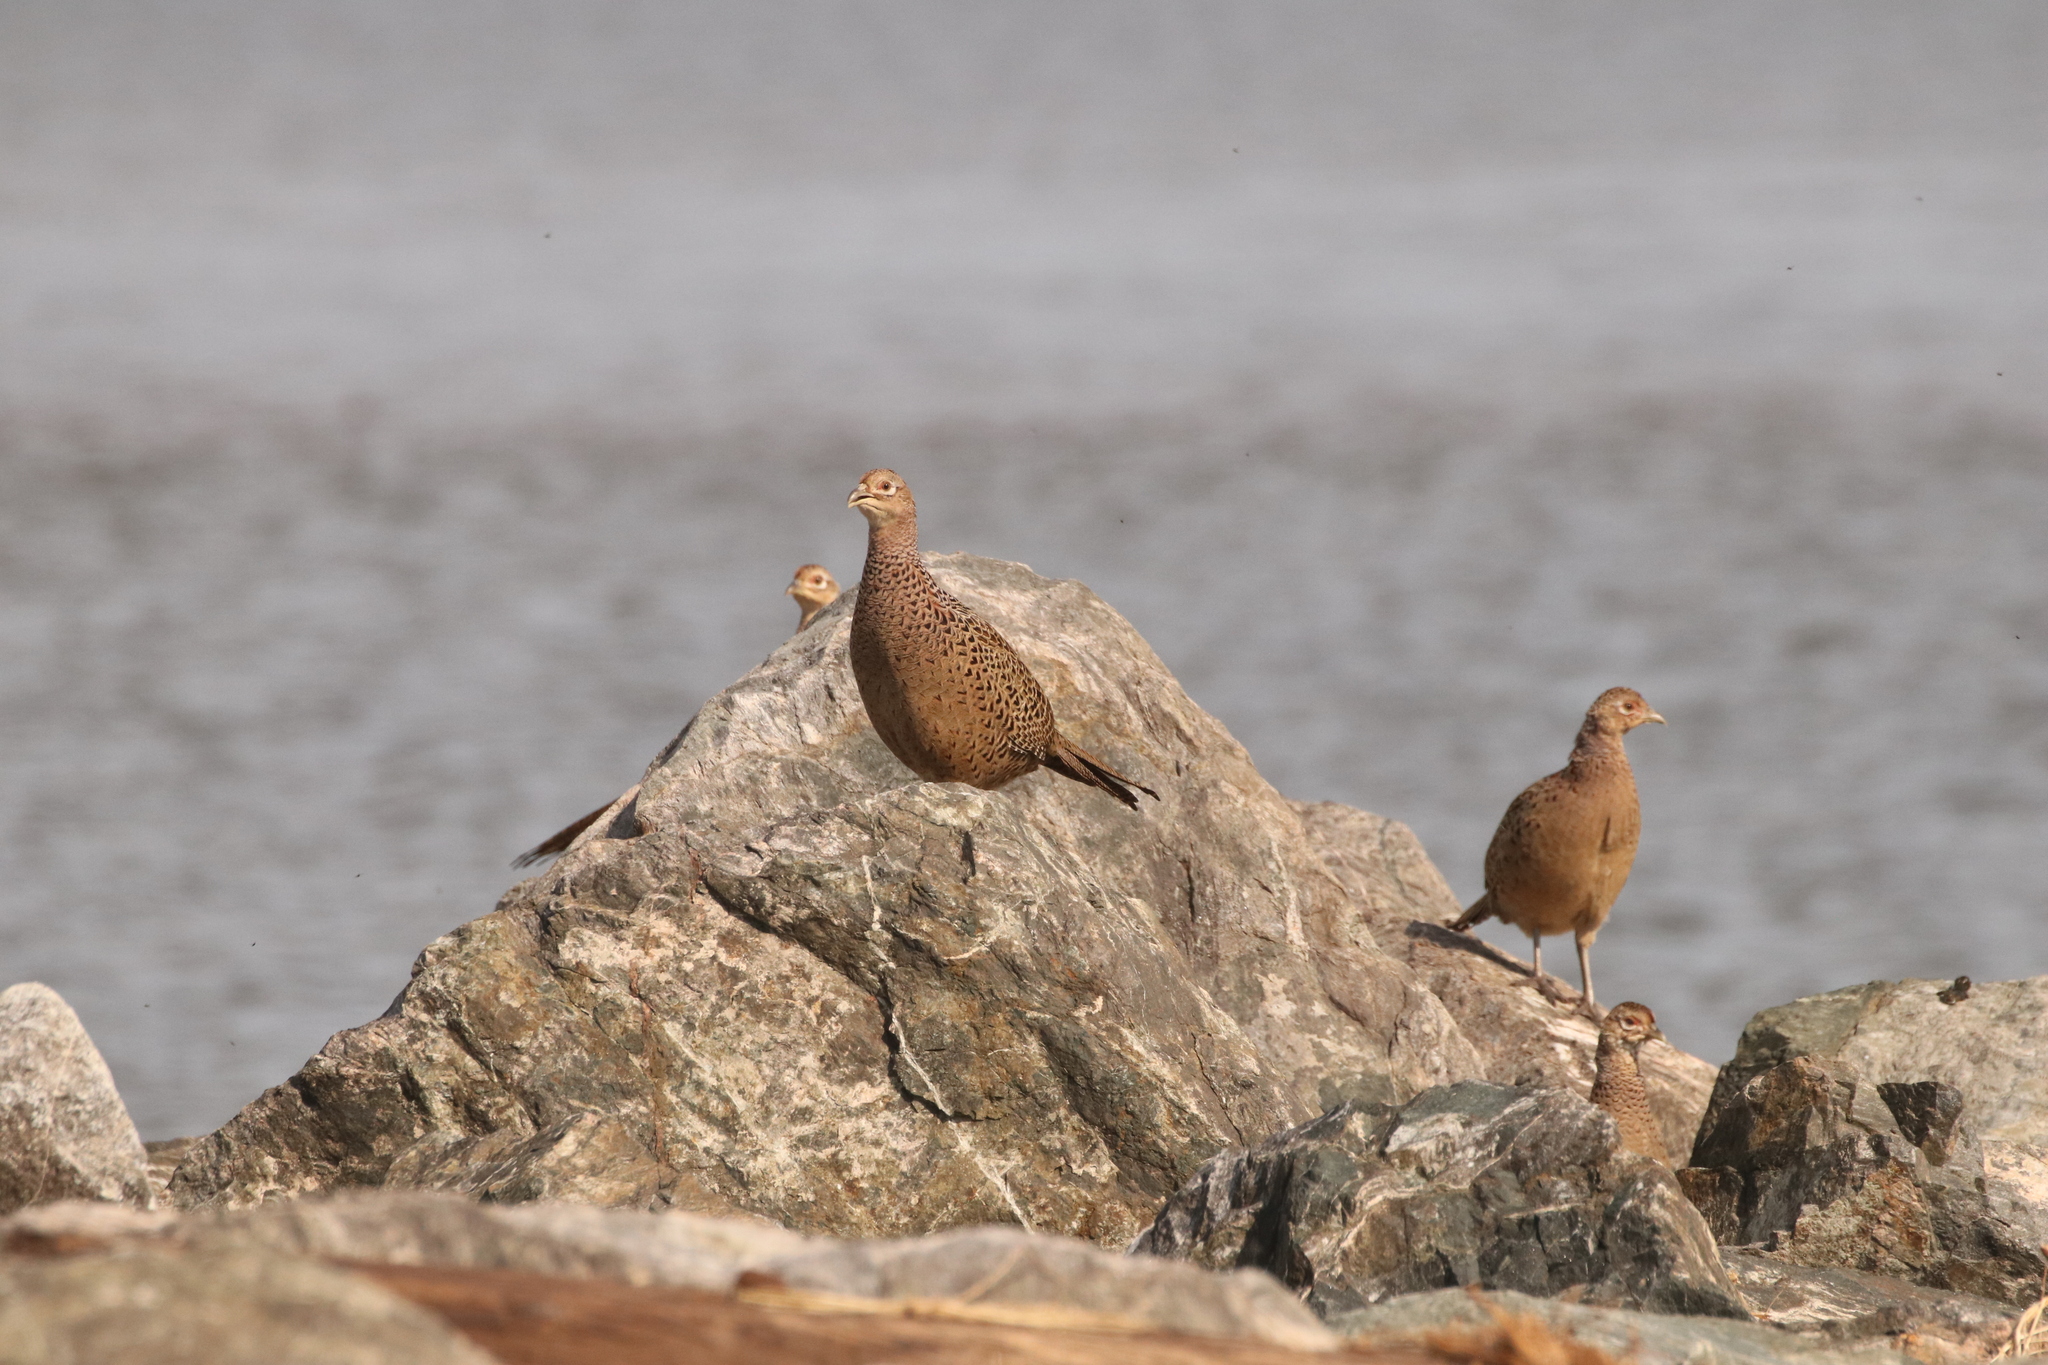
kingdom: Animalia
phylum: Chordata
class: Aves
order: Galliformes
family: Phasianidae
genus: Phasianus
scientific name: Phasianus colchicus
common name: Common pheasant
